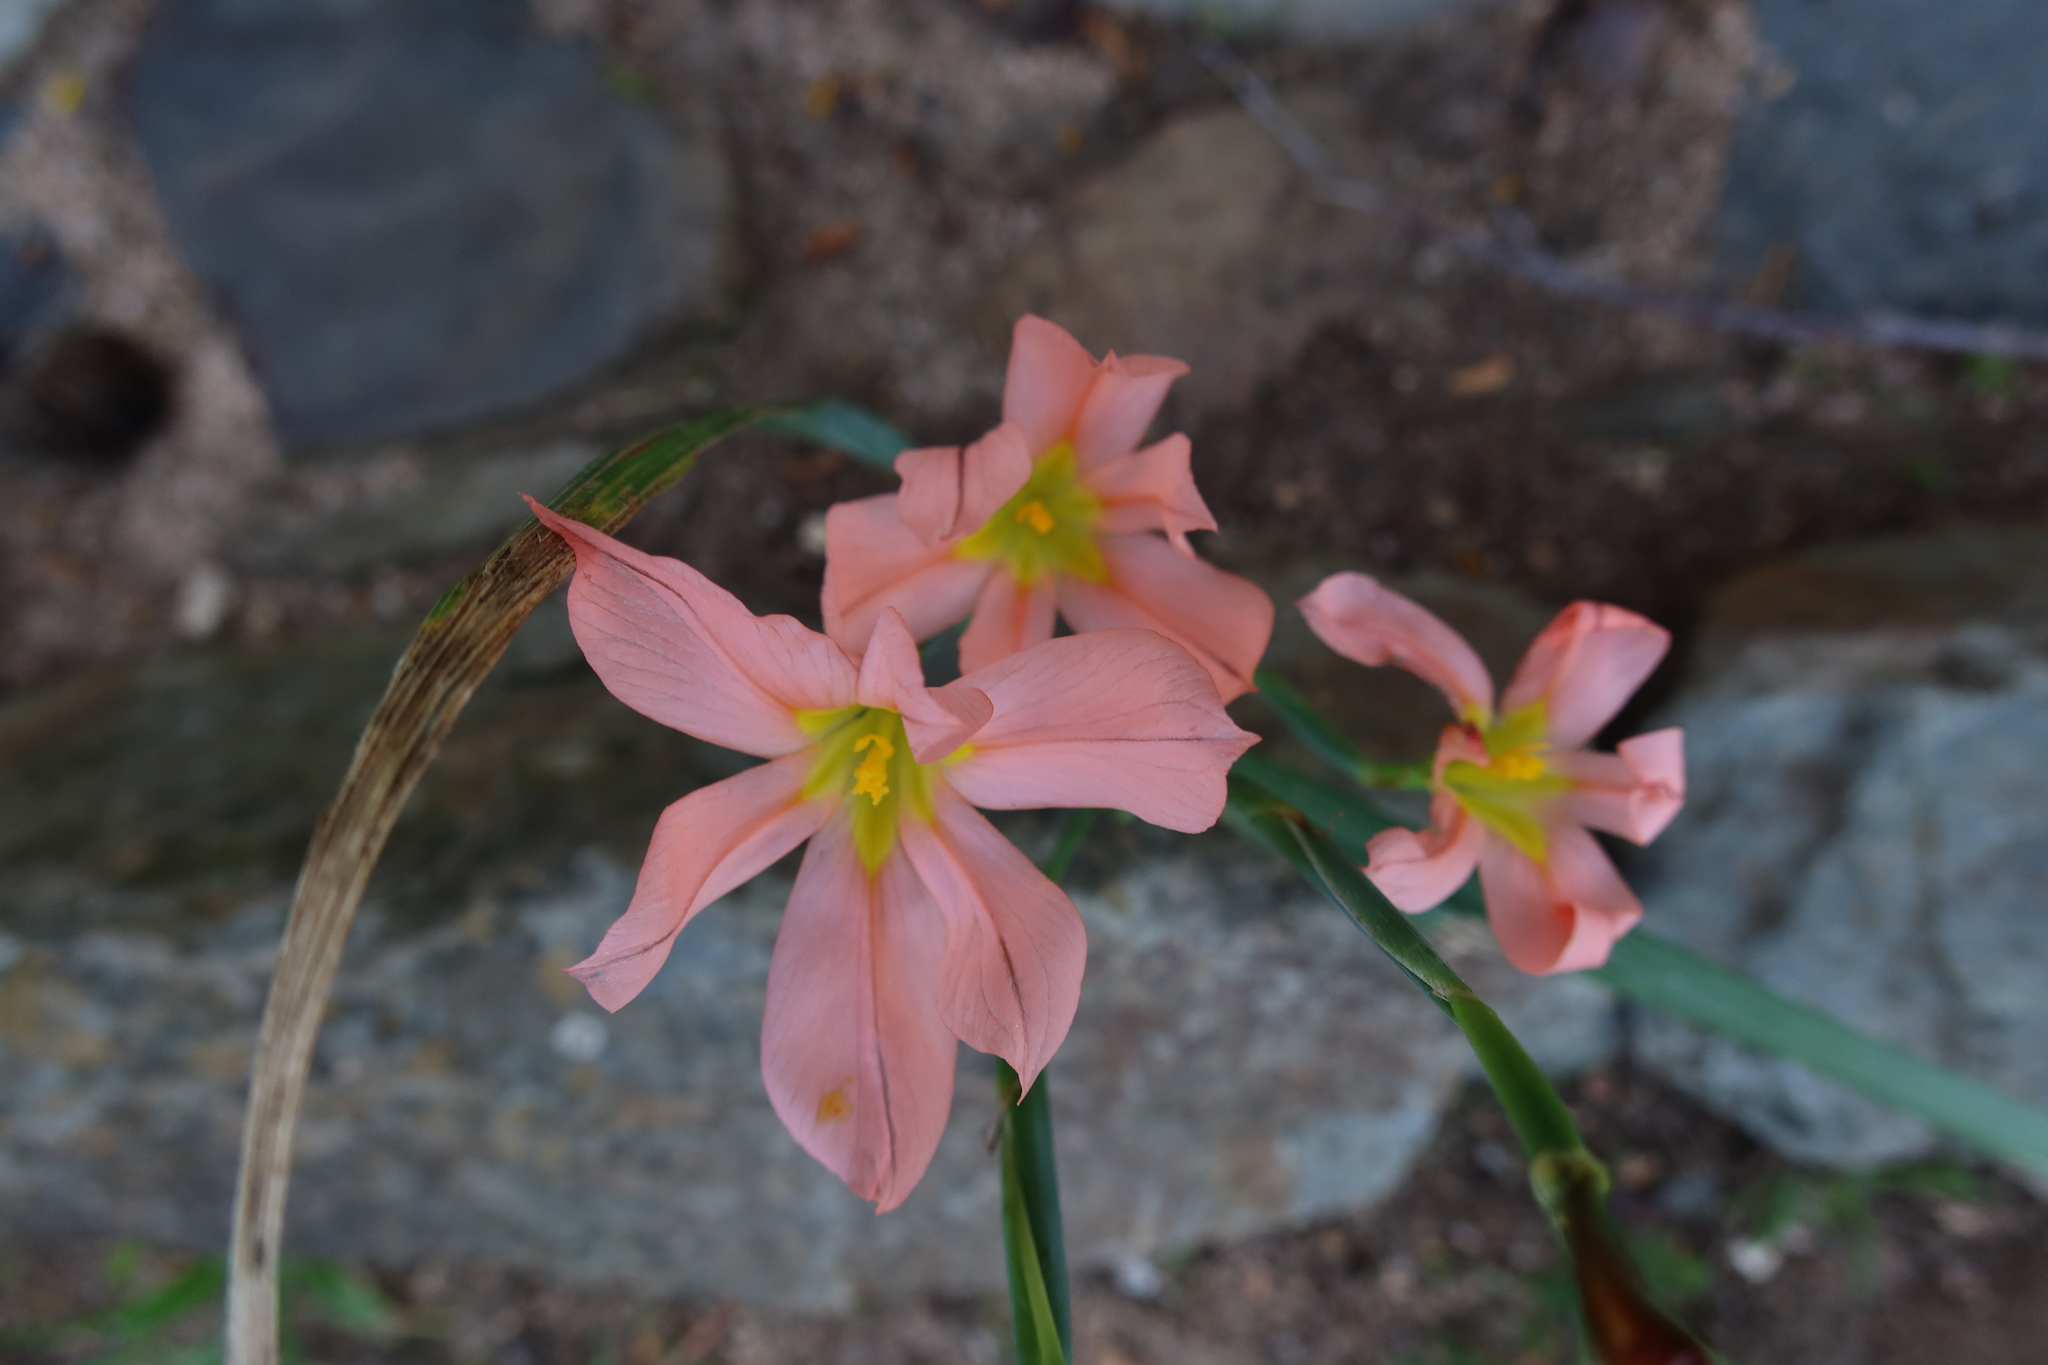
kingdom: Plantae
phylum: Tracheophyta
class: Liliopsida
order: Asparagales
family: Iridaceae
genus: Moraea
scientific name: Moraea flaccida
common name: One-leaf cape-tulip
